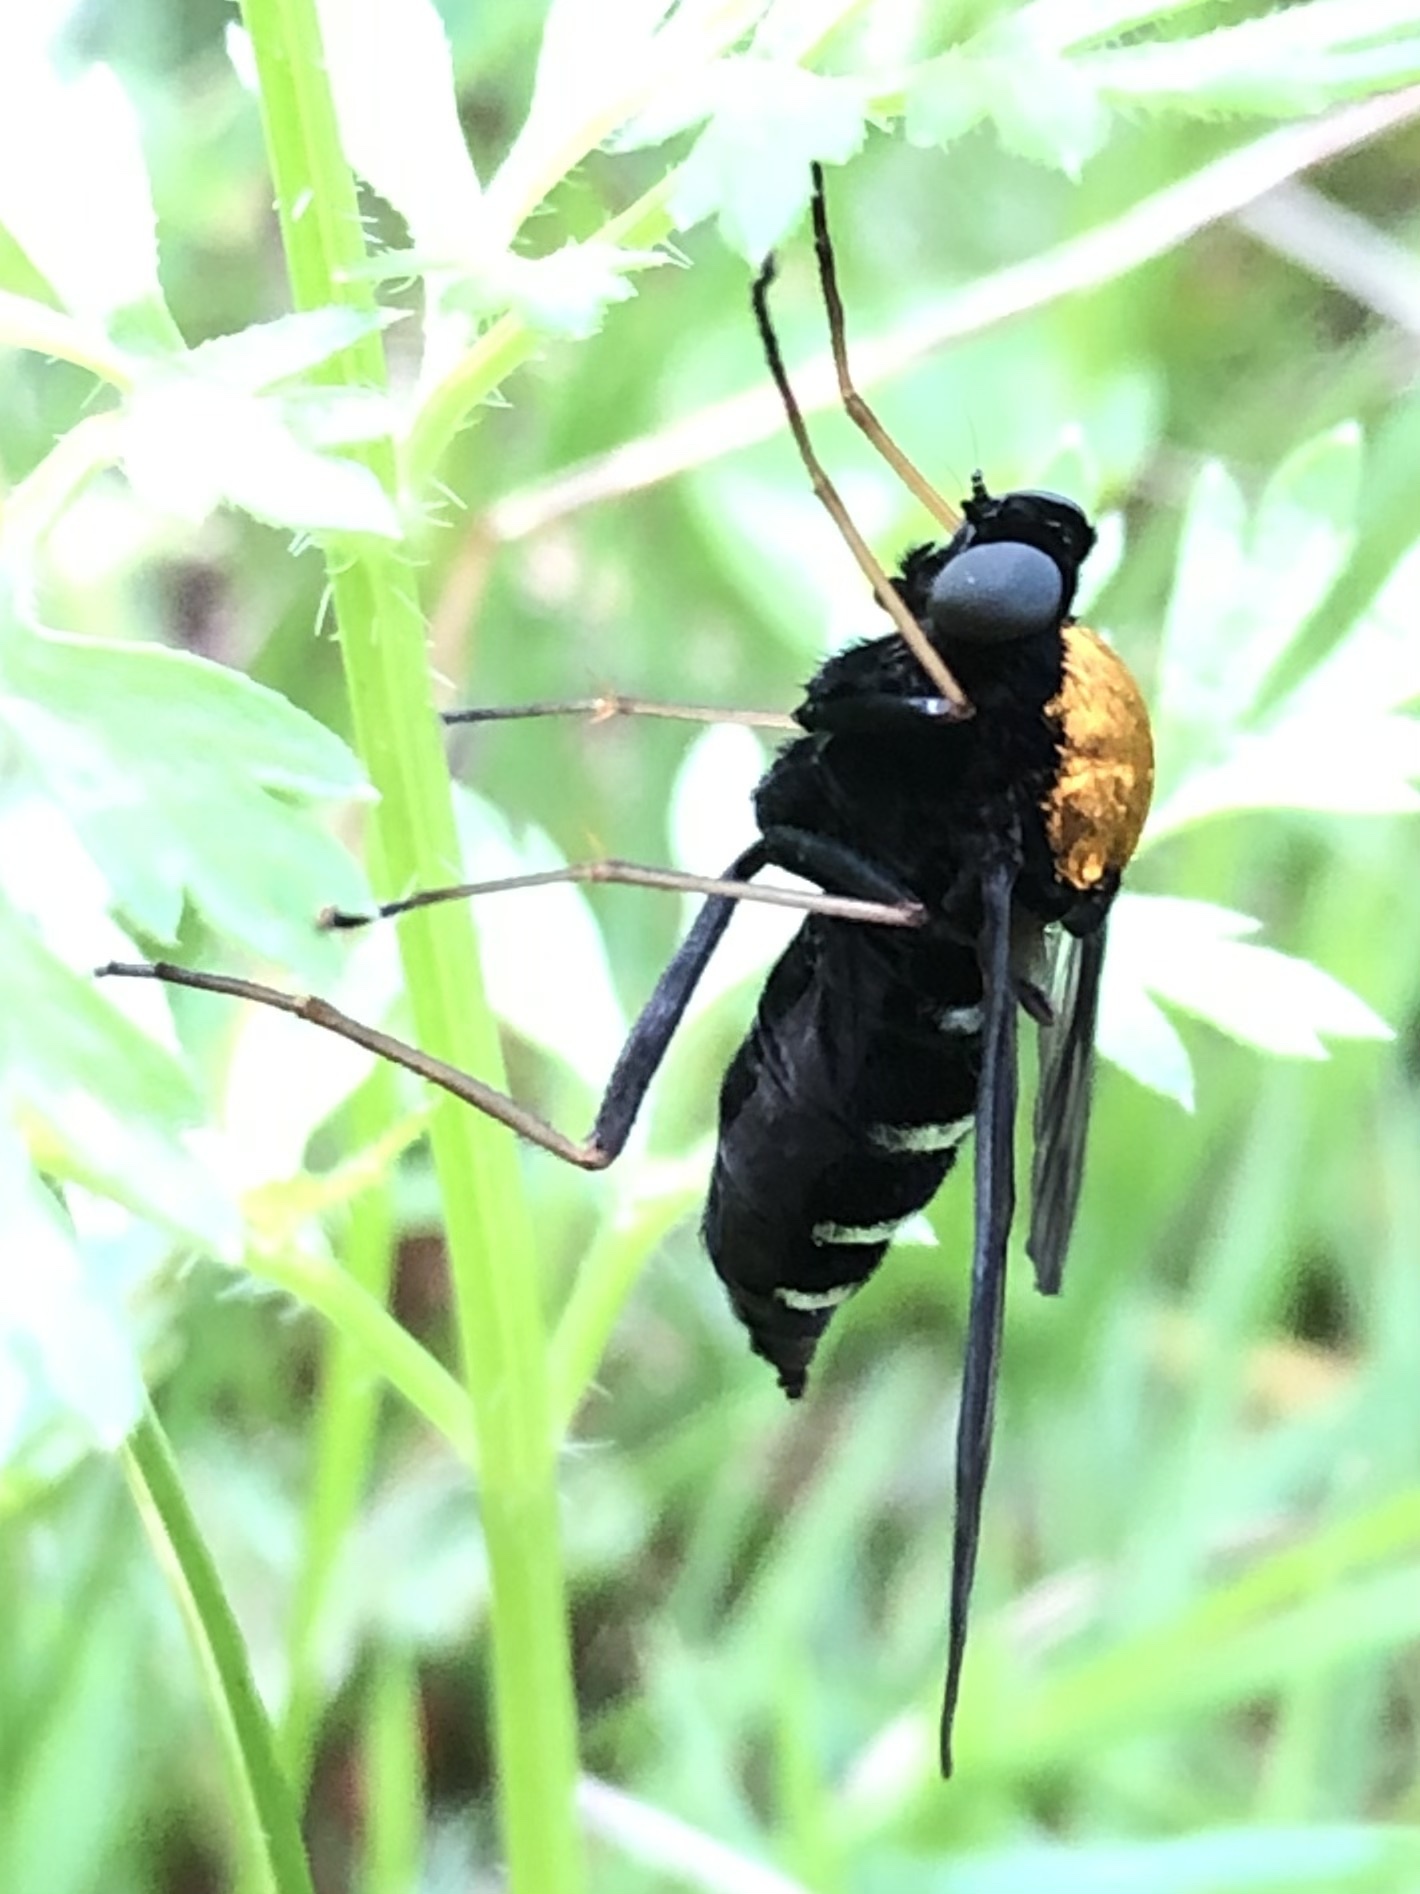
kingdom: Animalia
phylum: Arthropoda
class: Insecta
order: Diptera
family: Rhagionidae
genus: Chrysopilus
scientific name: Chrysopilus thoracicus
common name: Golden-backed snipe fly
